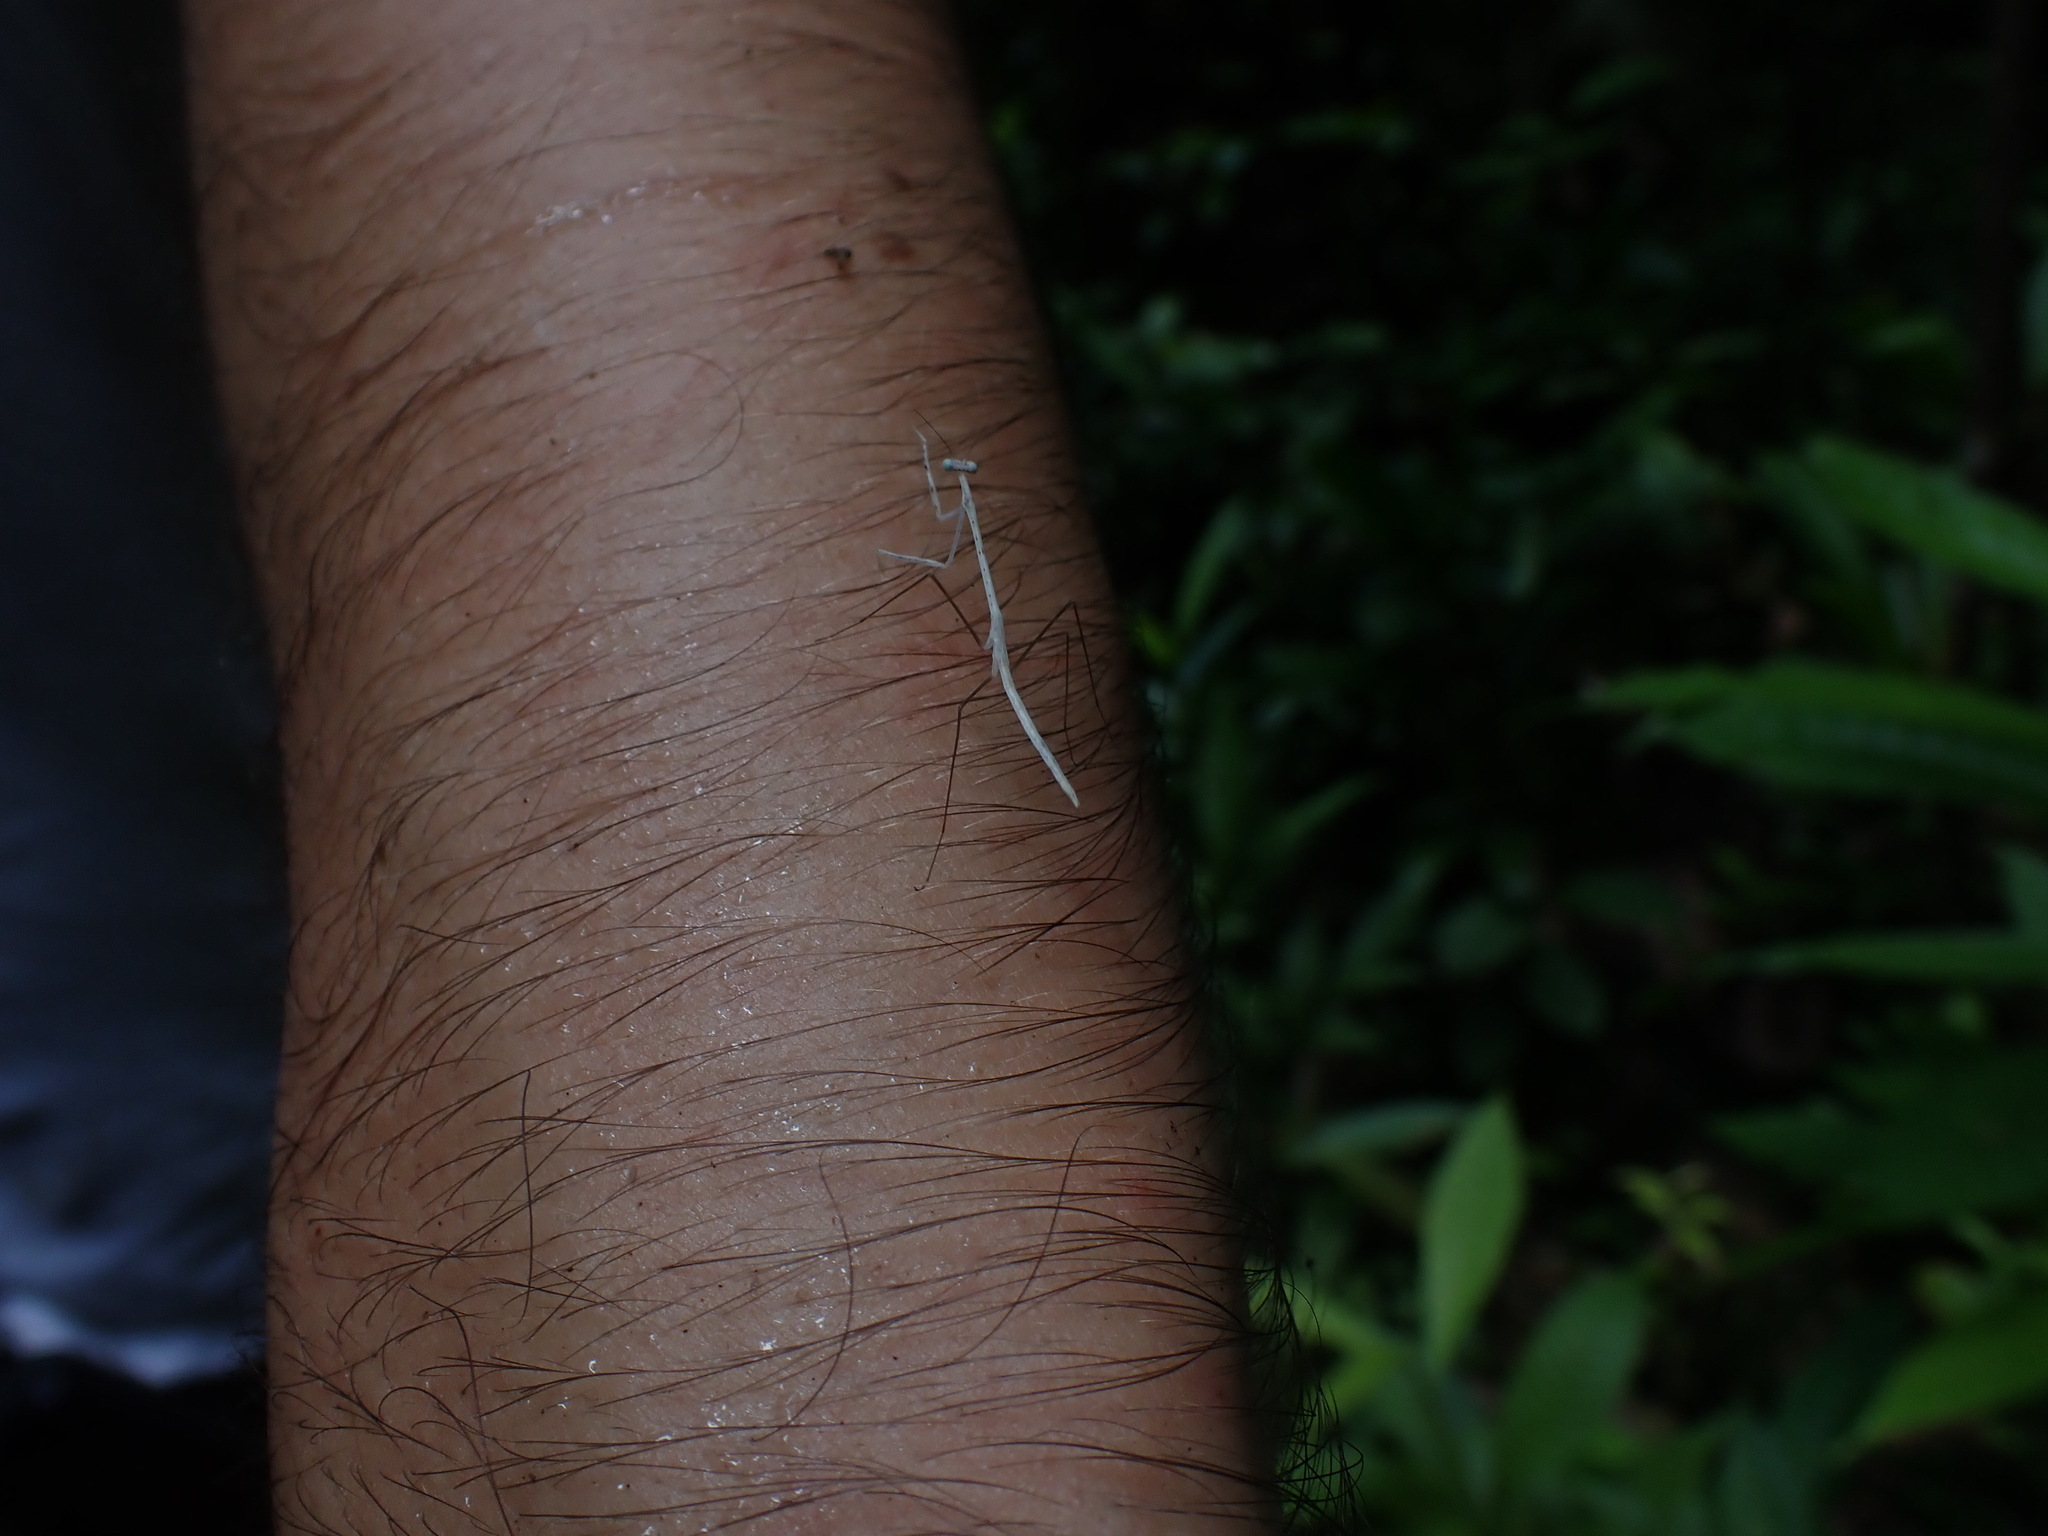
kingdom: Animalia
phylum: Arthropoda
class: Insecta
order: Mantodea
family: Angelidae
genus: Angela
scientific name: Angela
